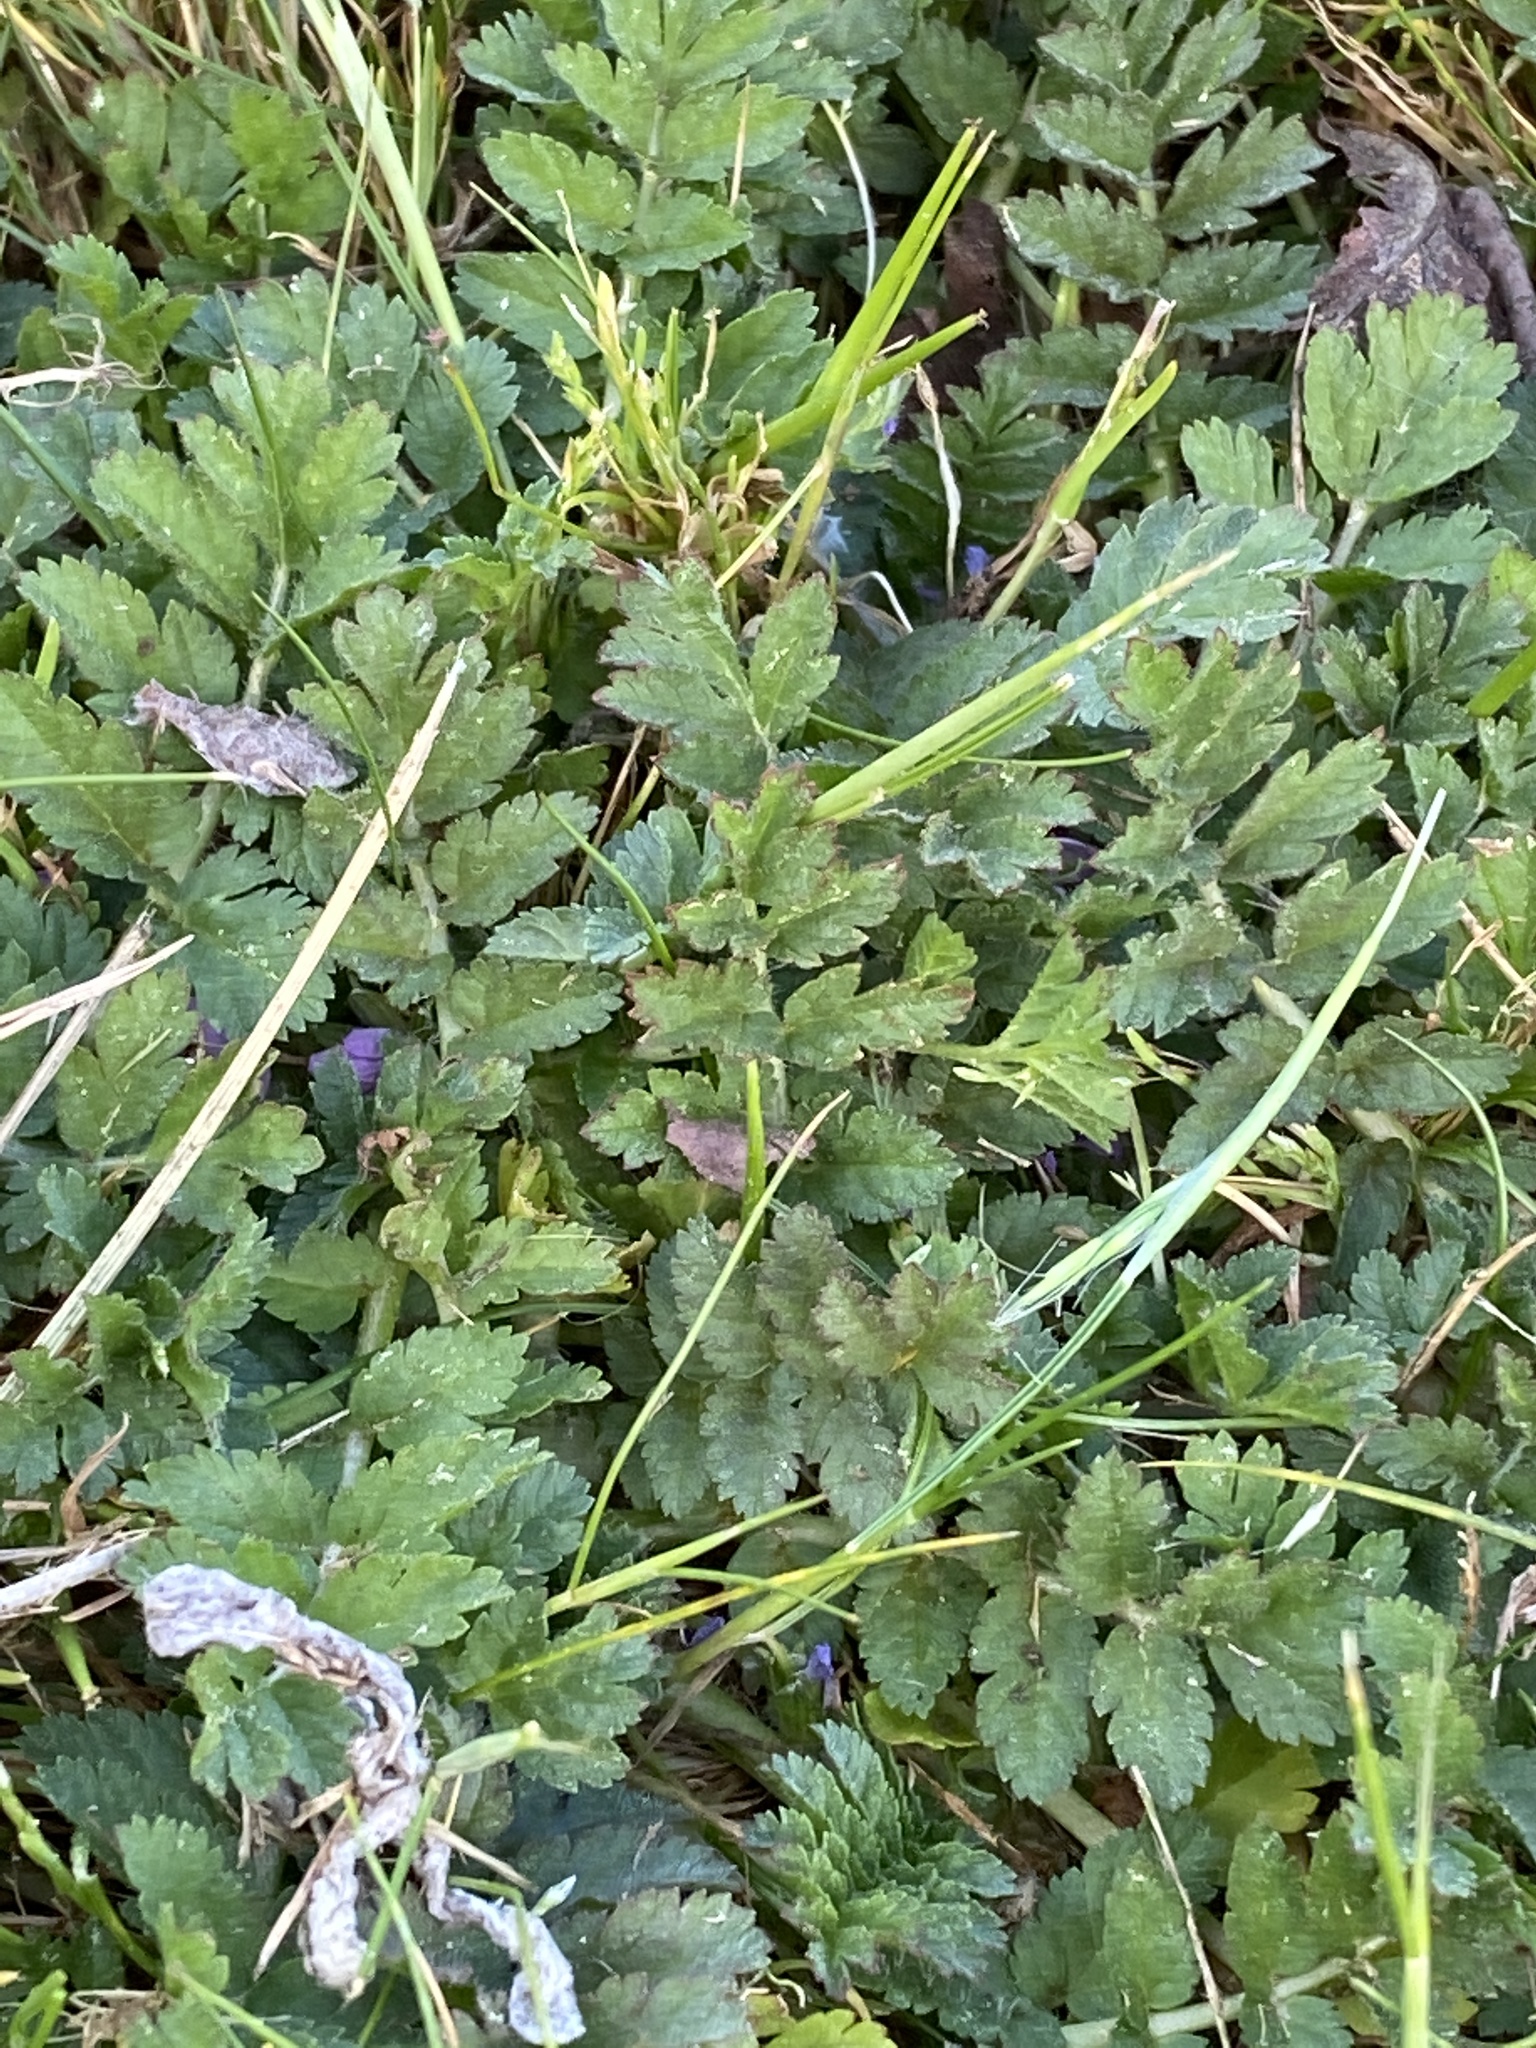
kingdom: Plantae
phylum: Tracheophyta
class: Magnoliopsida
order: Geraniales
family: Geraniaceae
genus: Erodium
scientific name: Erodium moschatum
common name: Musk stork's-bill
